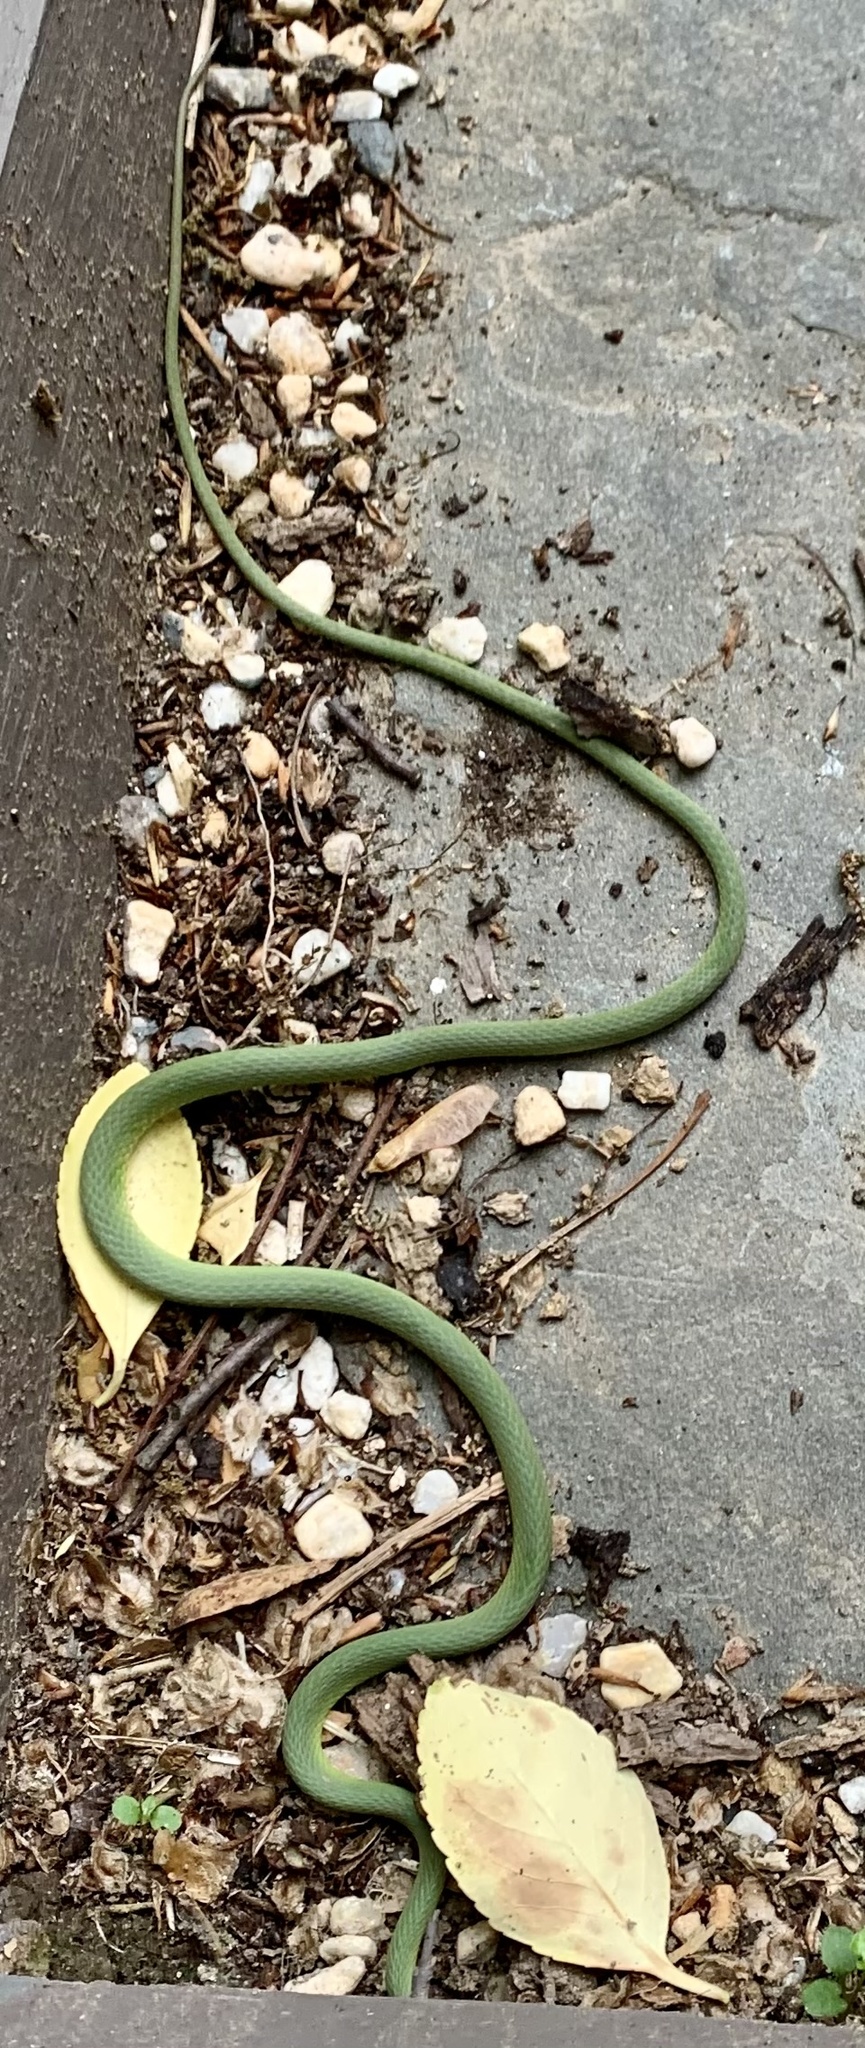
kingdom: Animalia
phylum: Chordata
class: Squamata
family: Colubridae
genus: Opheodrys
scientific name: Opheodrys aestivus
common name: Rough greensnake
